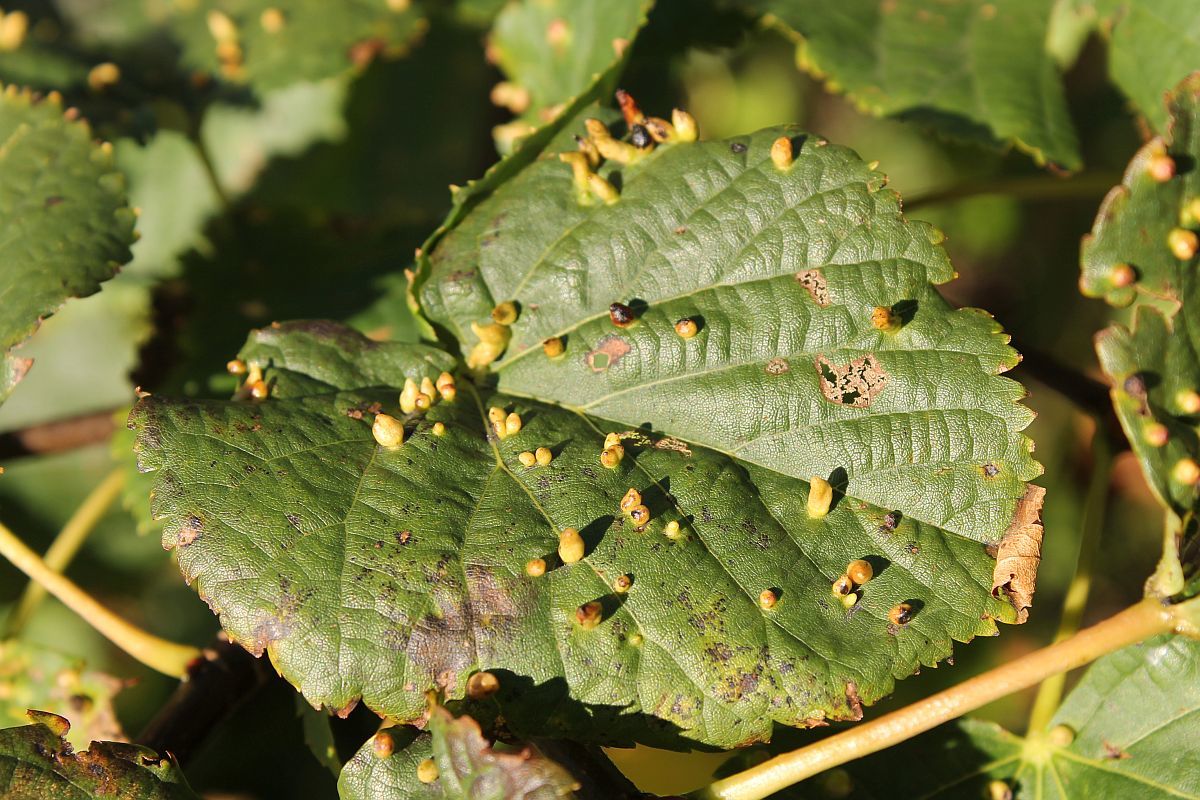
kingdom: Animalia
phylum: Arthropoda
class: Arachnida
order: Trombidiformes
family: Eriophyidae
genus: Eriophyes
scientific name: Eriophyes tiliae
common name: Red nail gall mite
